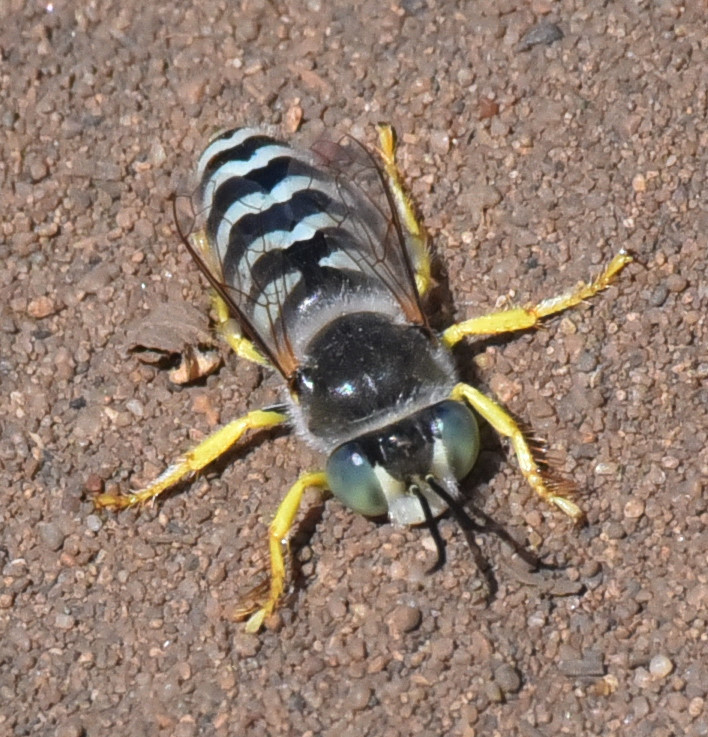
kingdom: Animalia
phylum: Arthropoda
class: Insecta
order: Hymenoptera
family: Crabronidae
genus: Bembix
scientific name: Bembix americana
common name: American sand wasp
